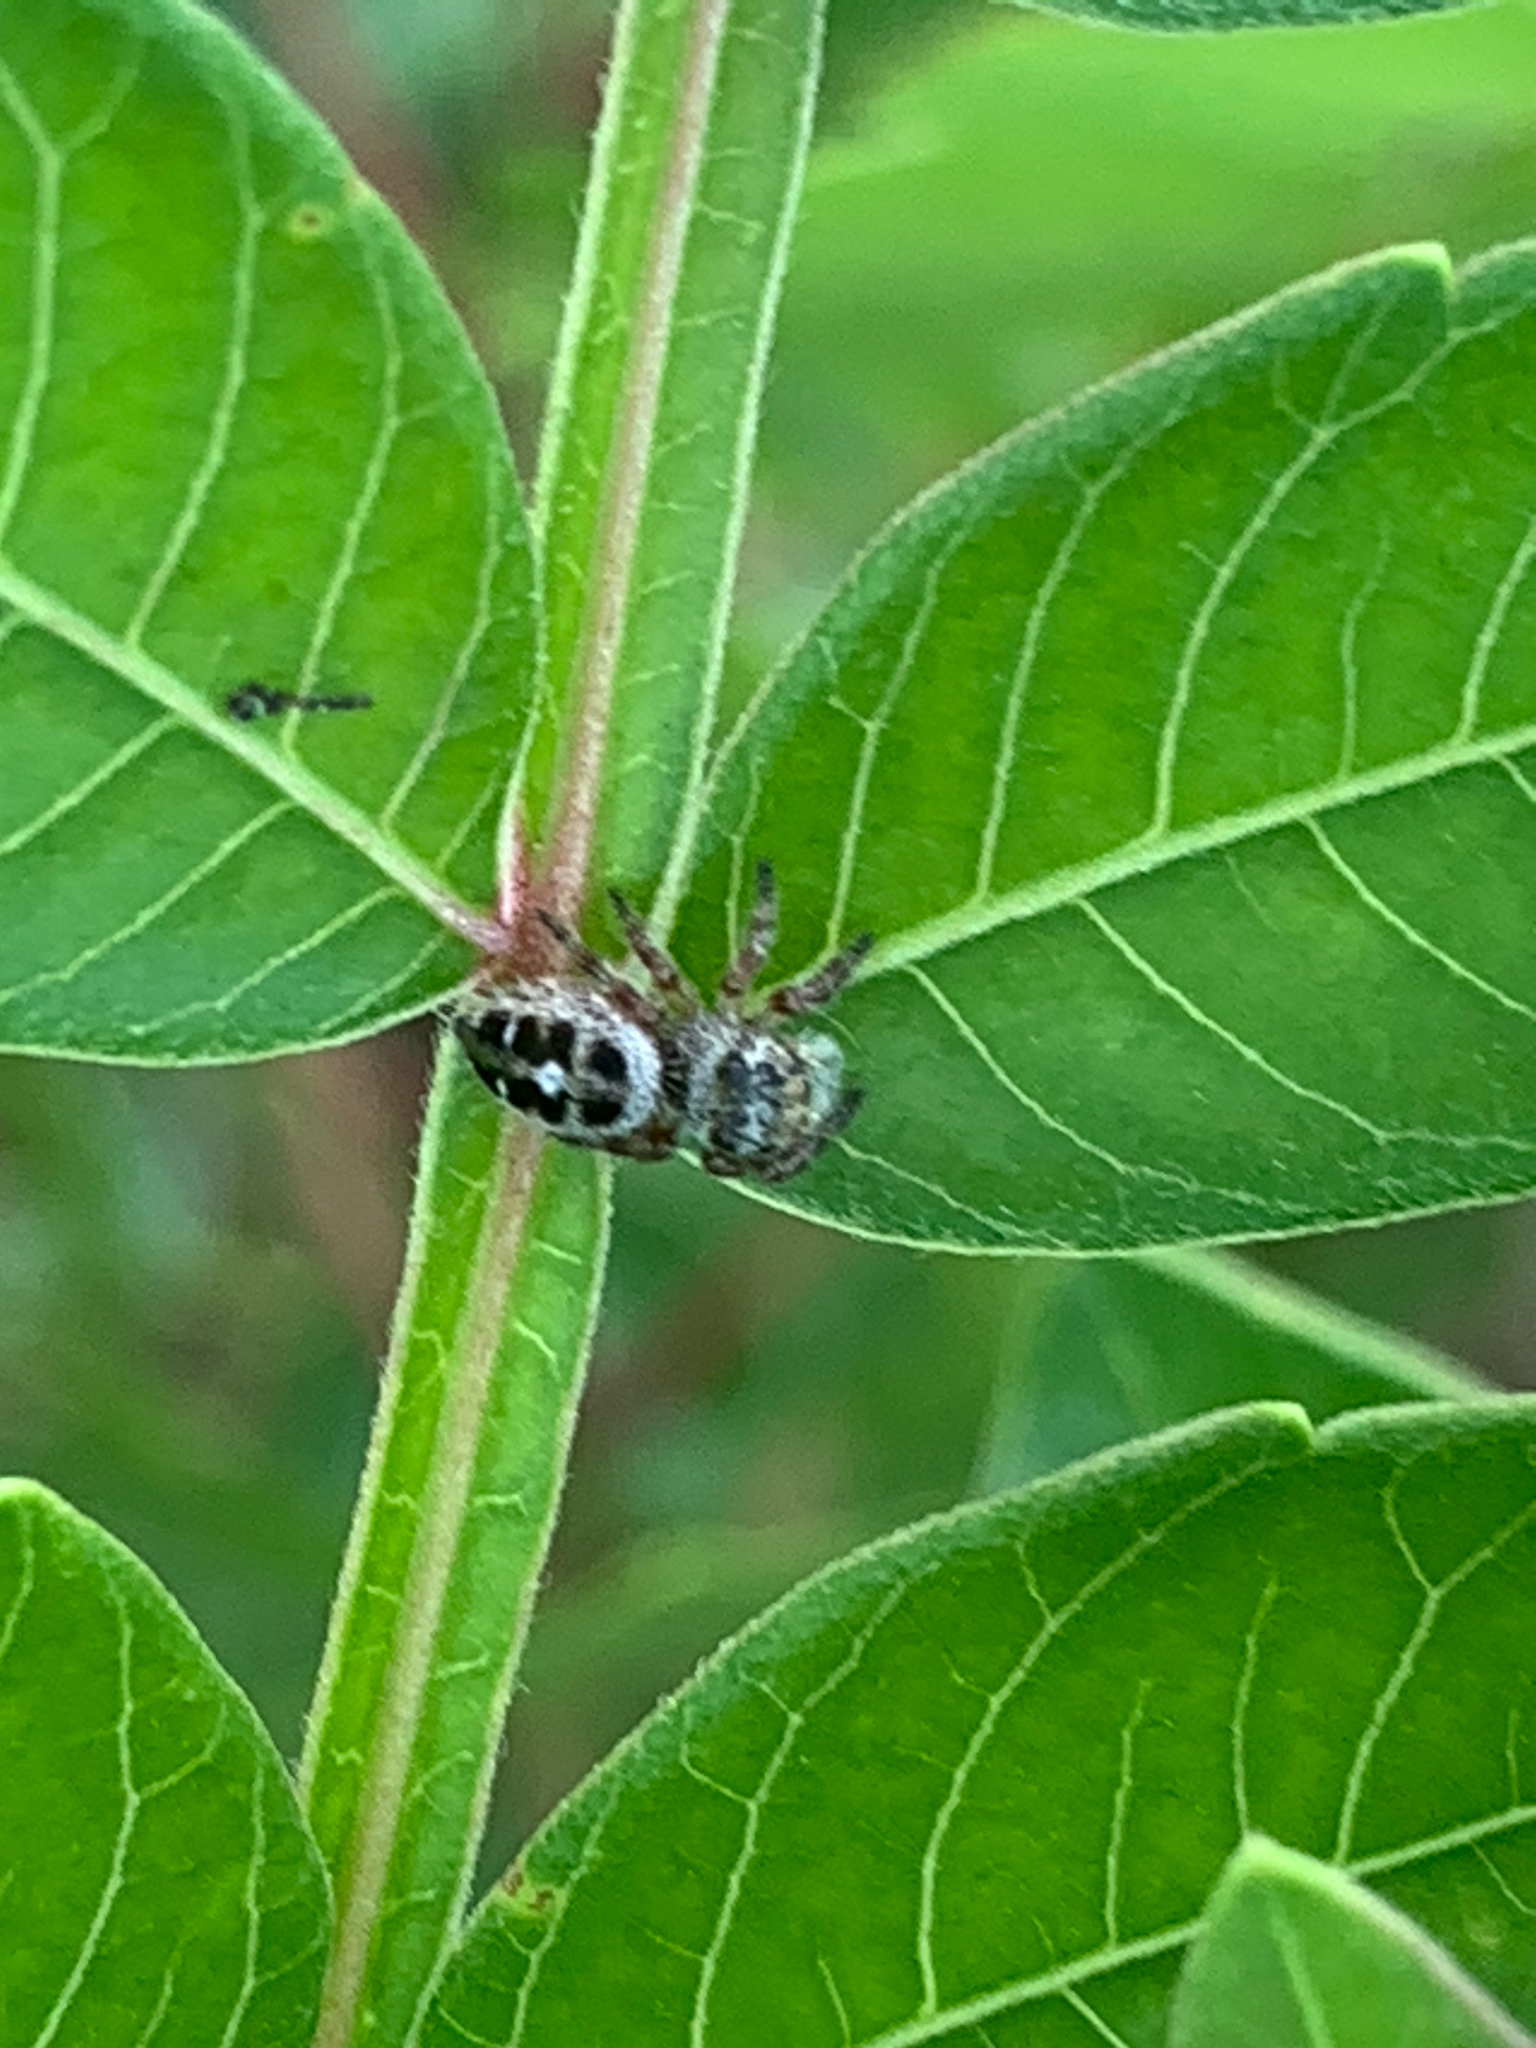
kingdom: Animalia
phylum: Arthropoda
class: Arachnida
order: Araneae
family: Salticidae
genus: Phidippus
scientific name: Phidippus princeps
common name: Grayish jumping spider
